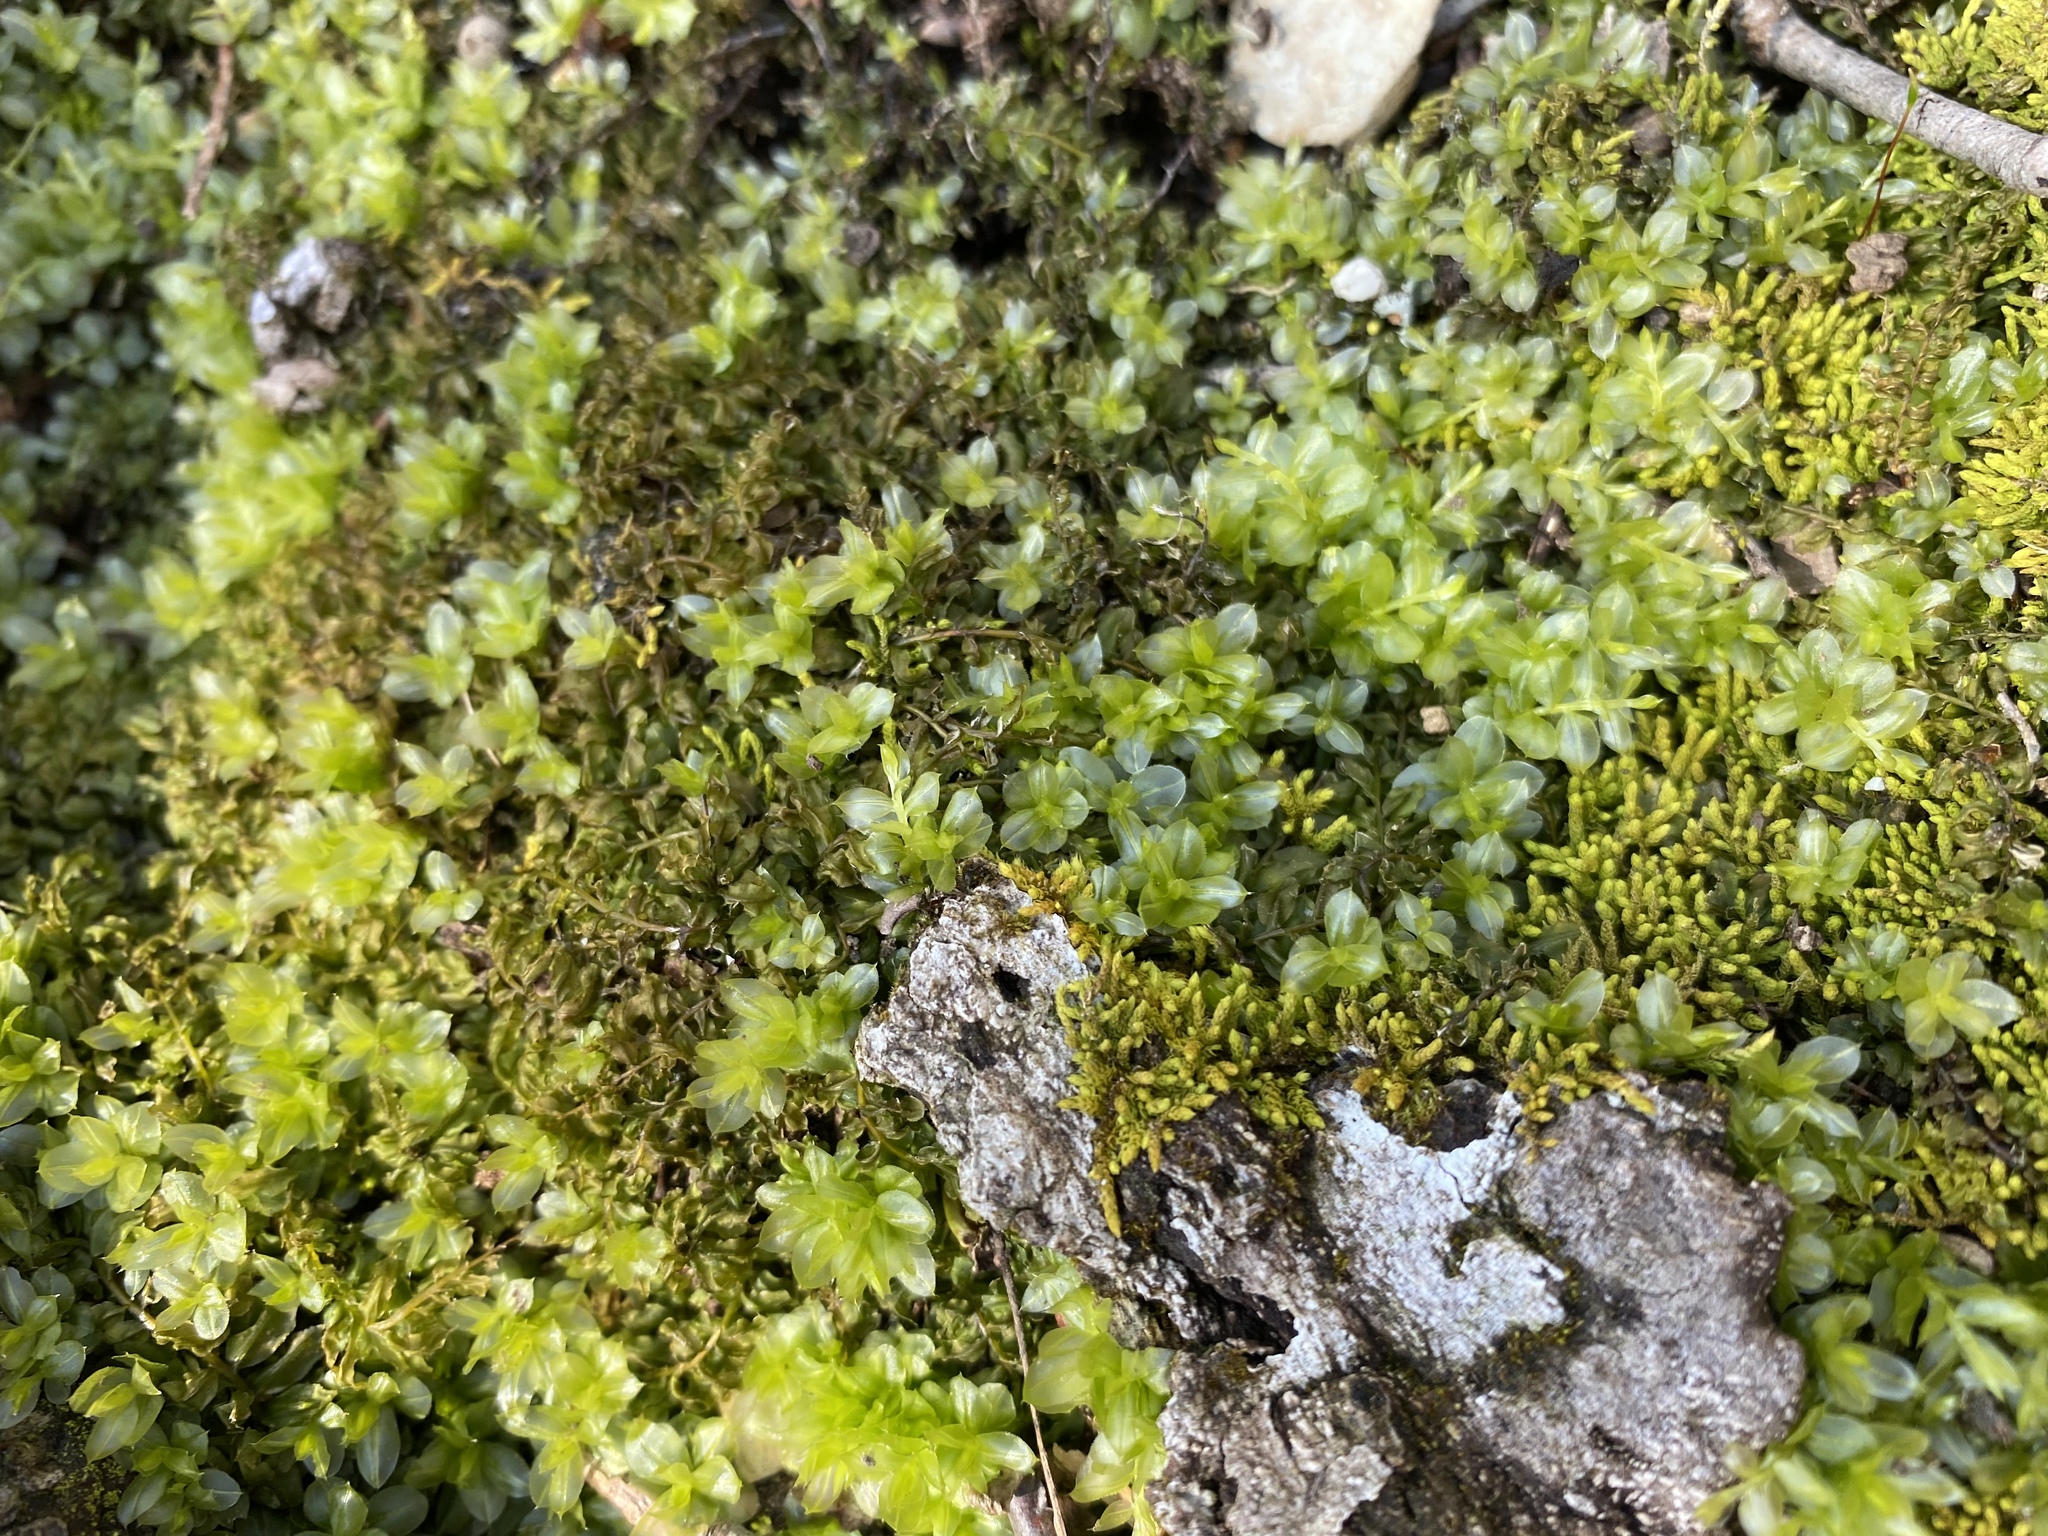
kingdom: Plantae
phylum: Bryophyta
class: Bryopsida
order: Bryales
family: Mniaceae
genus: Plagiomnium
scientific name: Plagiomnium
